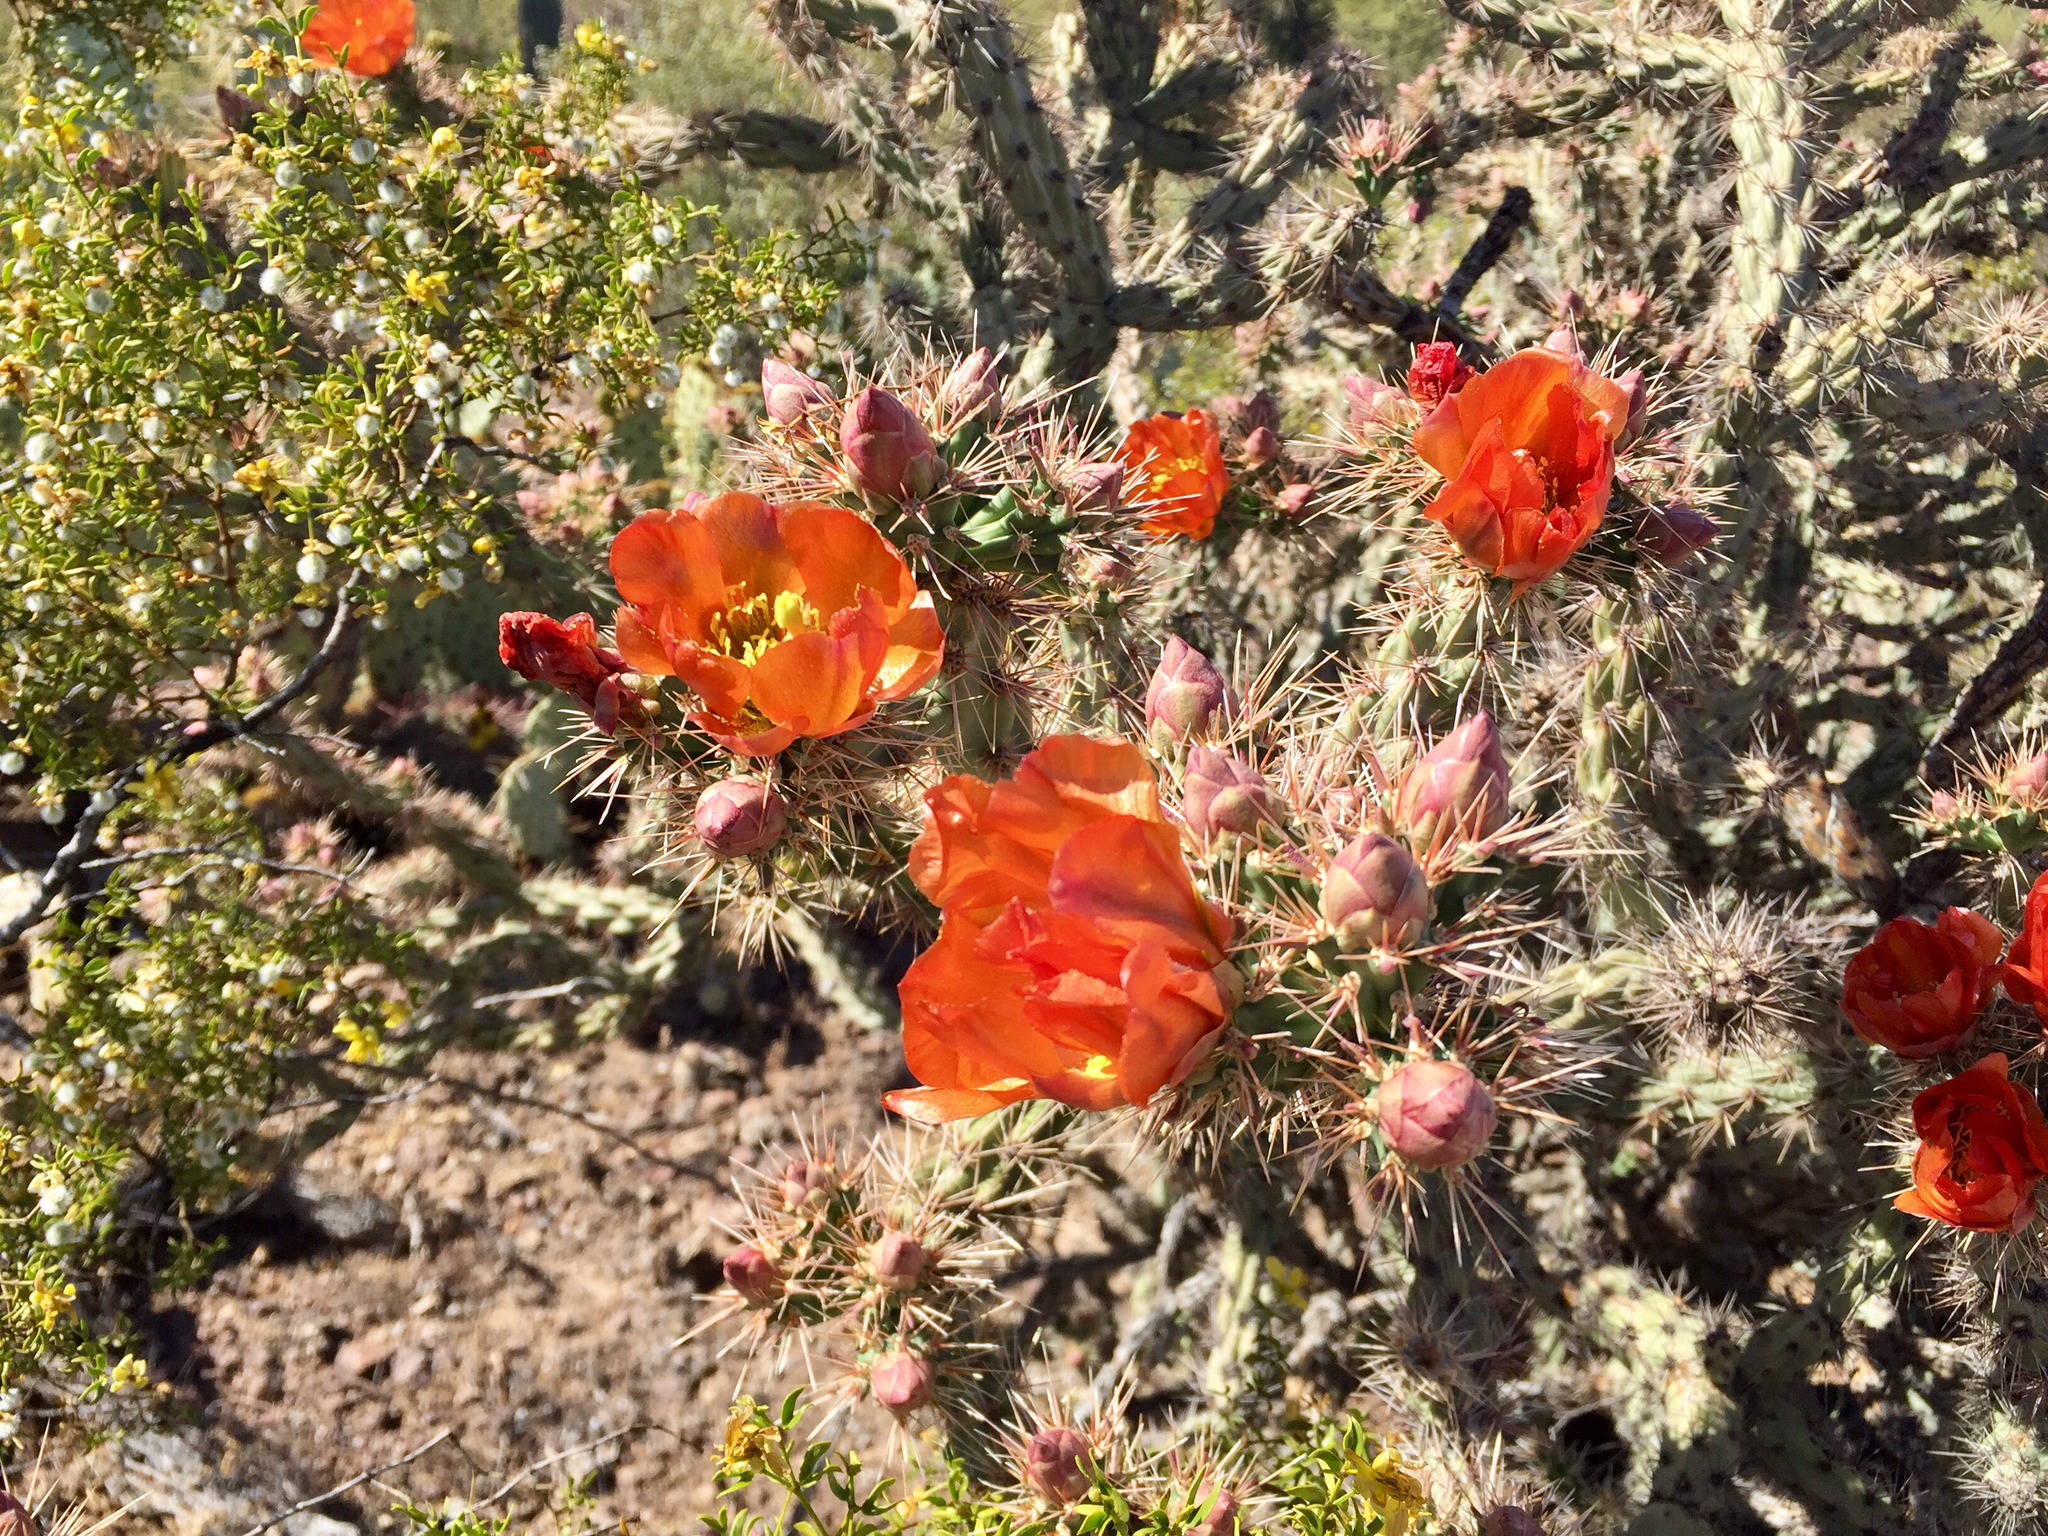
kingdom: Plantae
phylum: Tracheophyta
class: Magnoliopsida
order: Caryophyllales
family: Cactaceae
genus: Cylindropuntia
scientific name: Cylindropuntia acanthocarpa
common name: Buckhorn cholla
